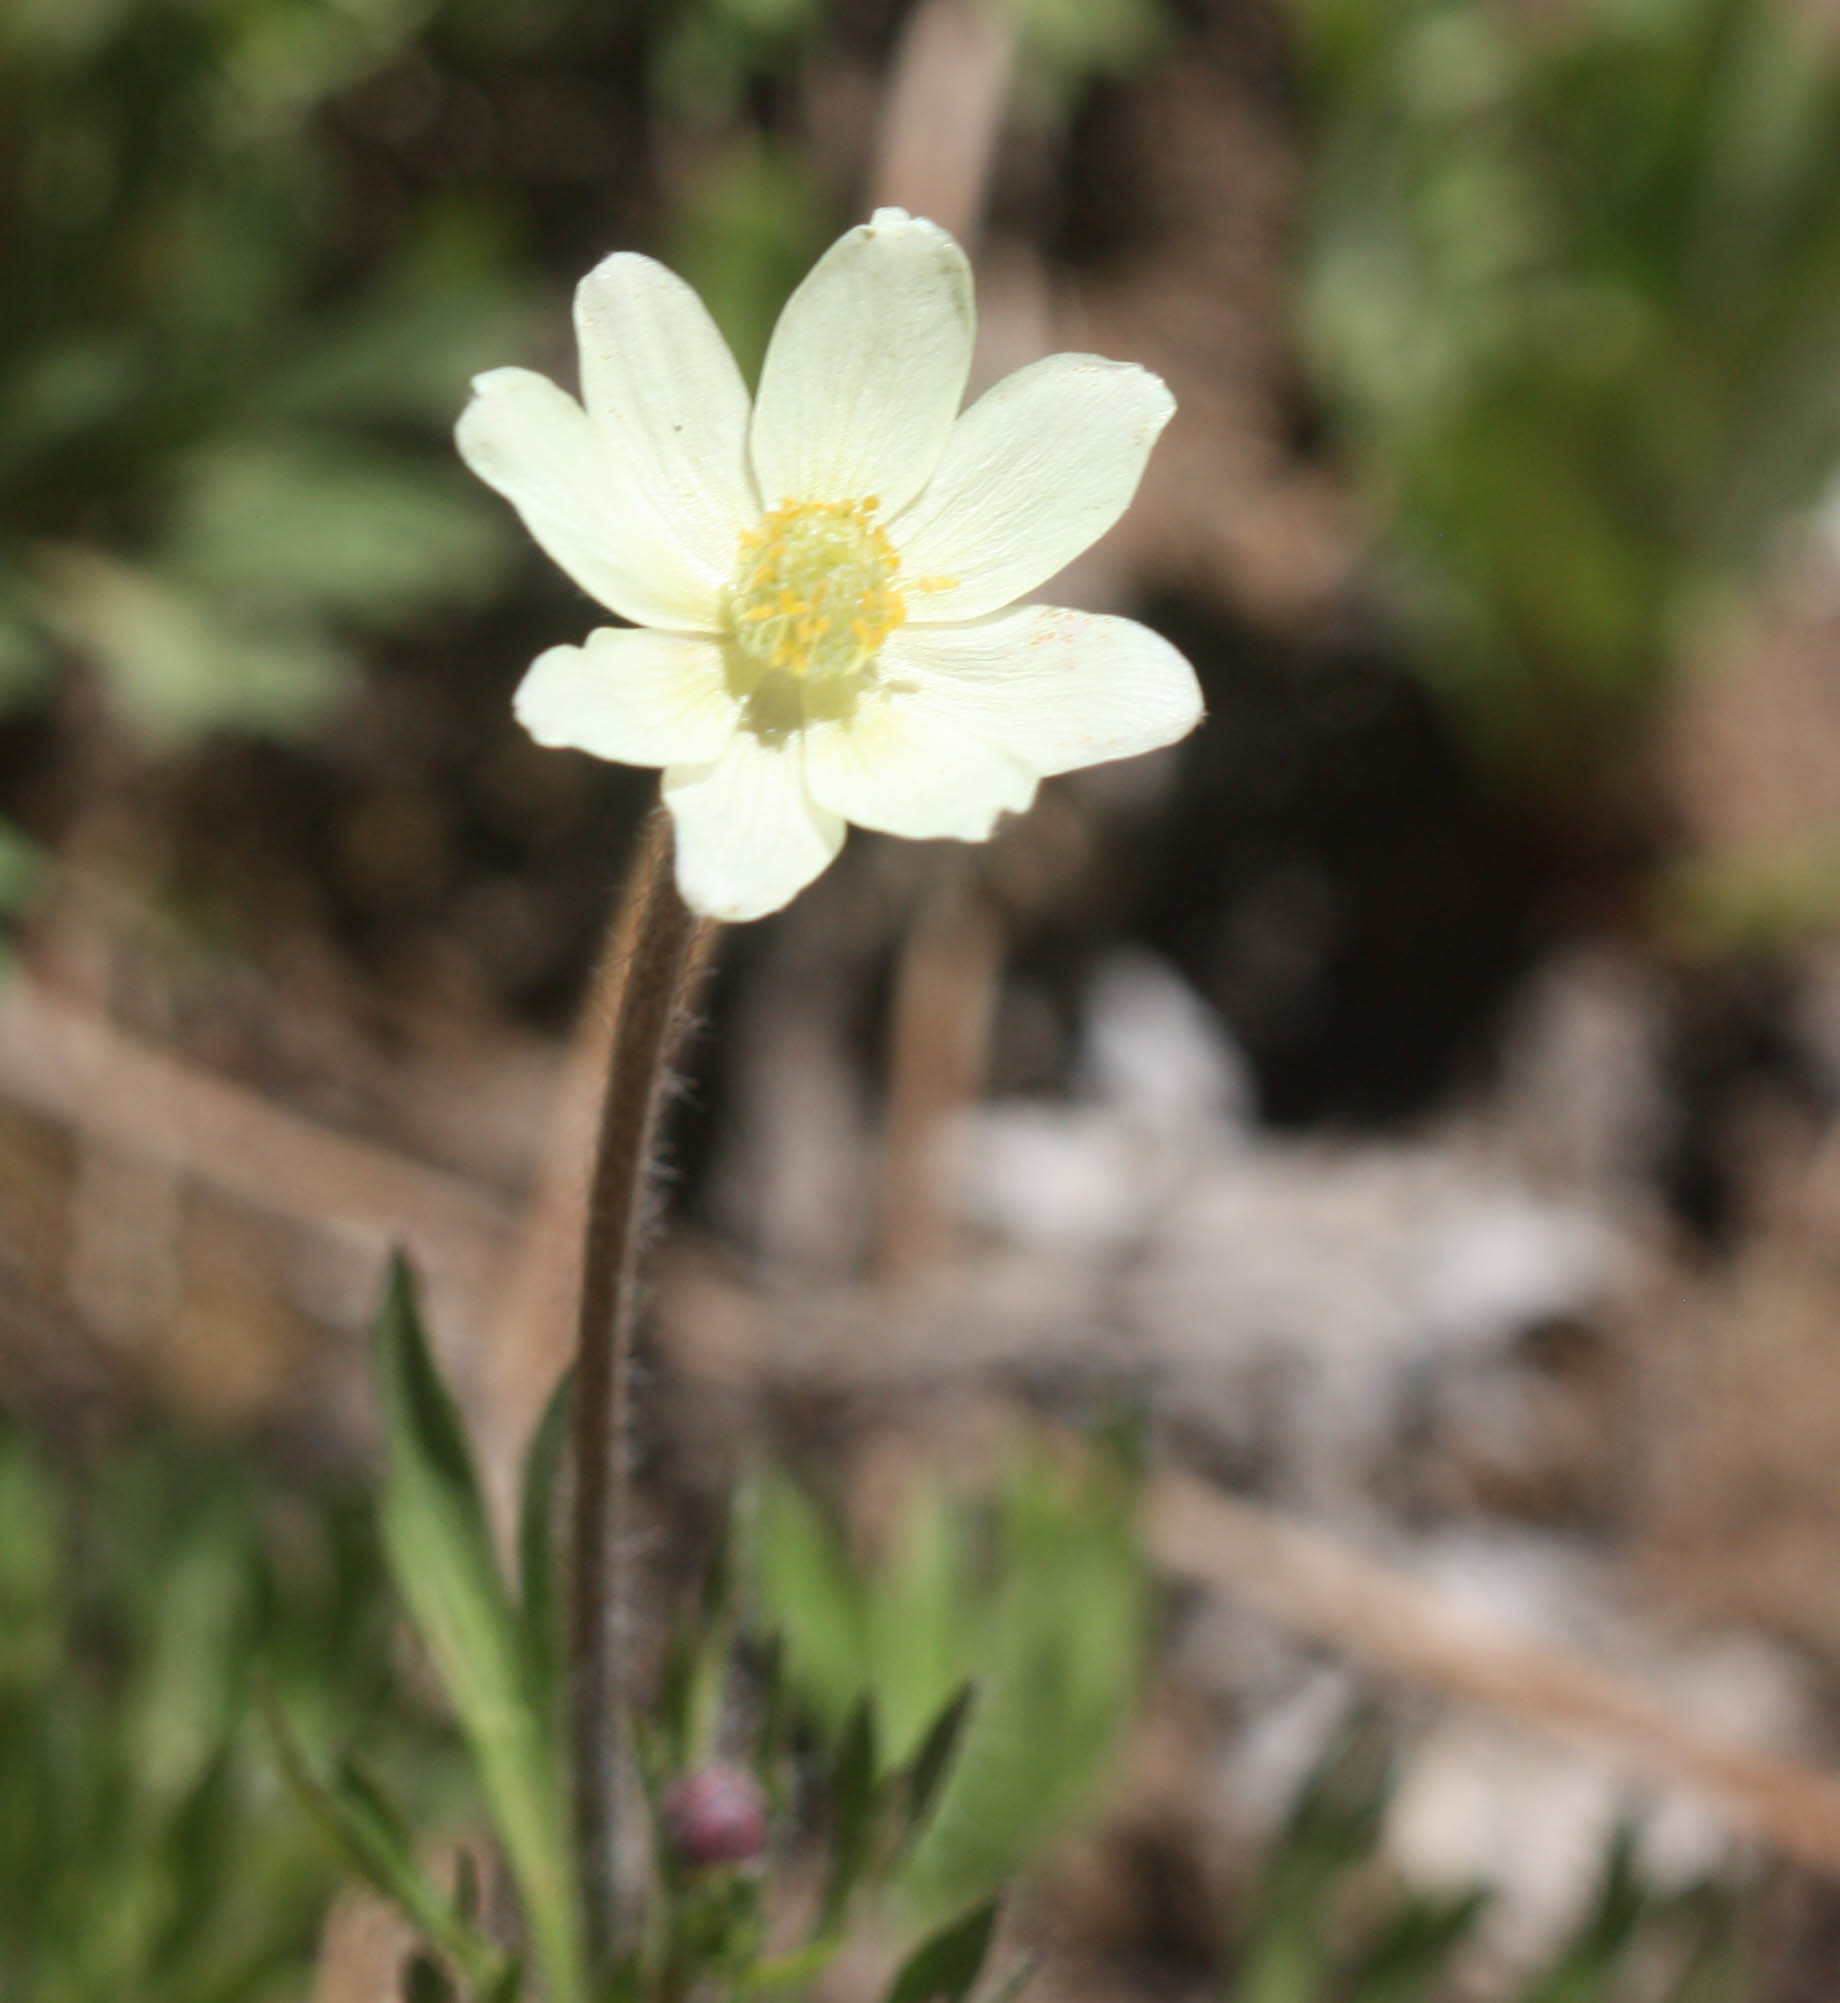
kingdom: Plantae
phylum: Tracheophyta
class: Magnoliopsida
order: Ranunculales
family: Ranunculaceae
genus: Anemone
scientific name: Anemone multifida
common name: Bird's-foot anemone
